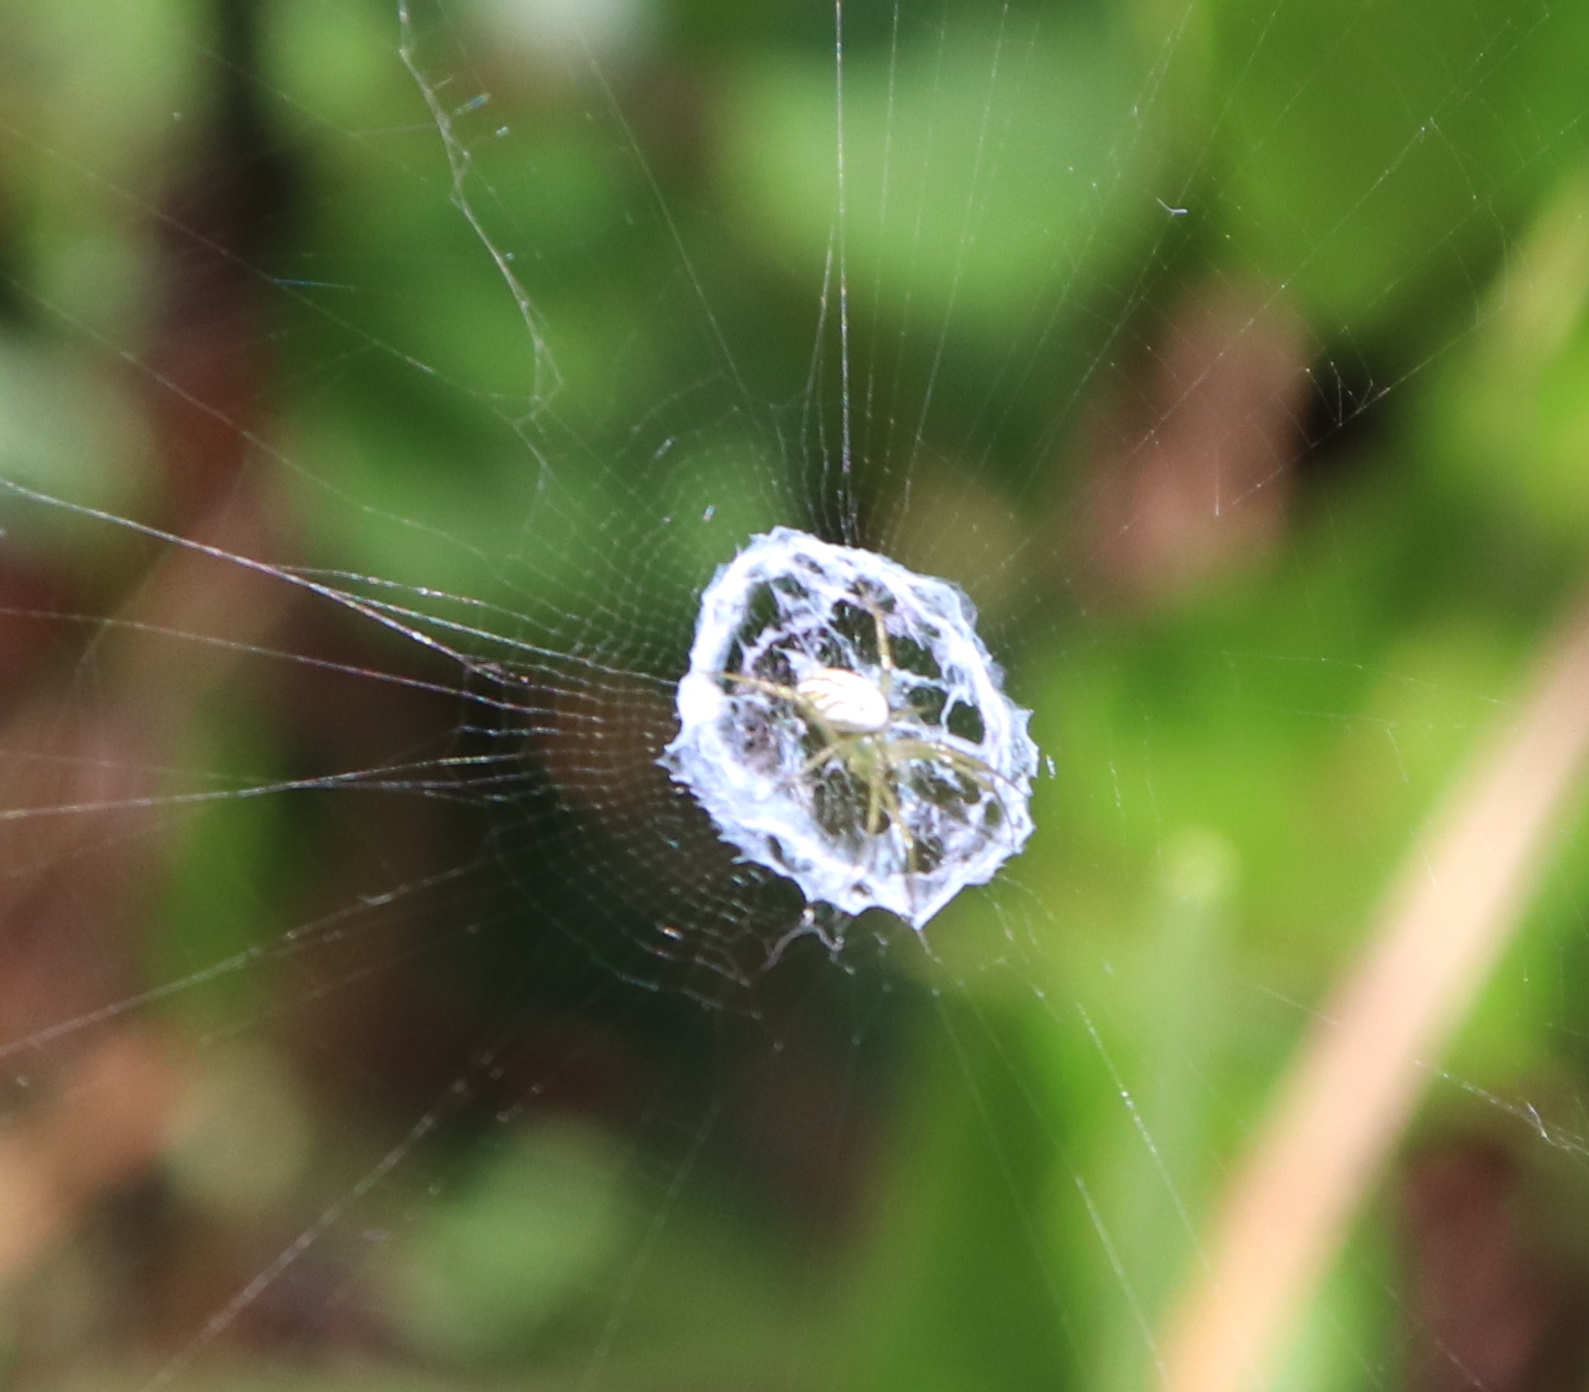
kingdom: Animalia
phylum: Arthropoda
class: Arachnida
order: Araneae
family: Araneidae
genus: Mangora
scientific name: Mangora gibberosa
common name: Lined orbweaver
